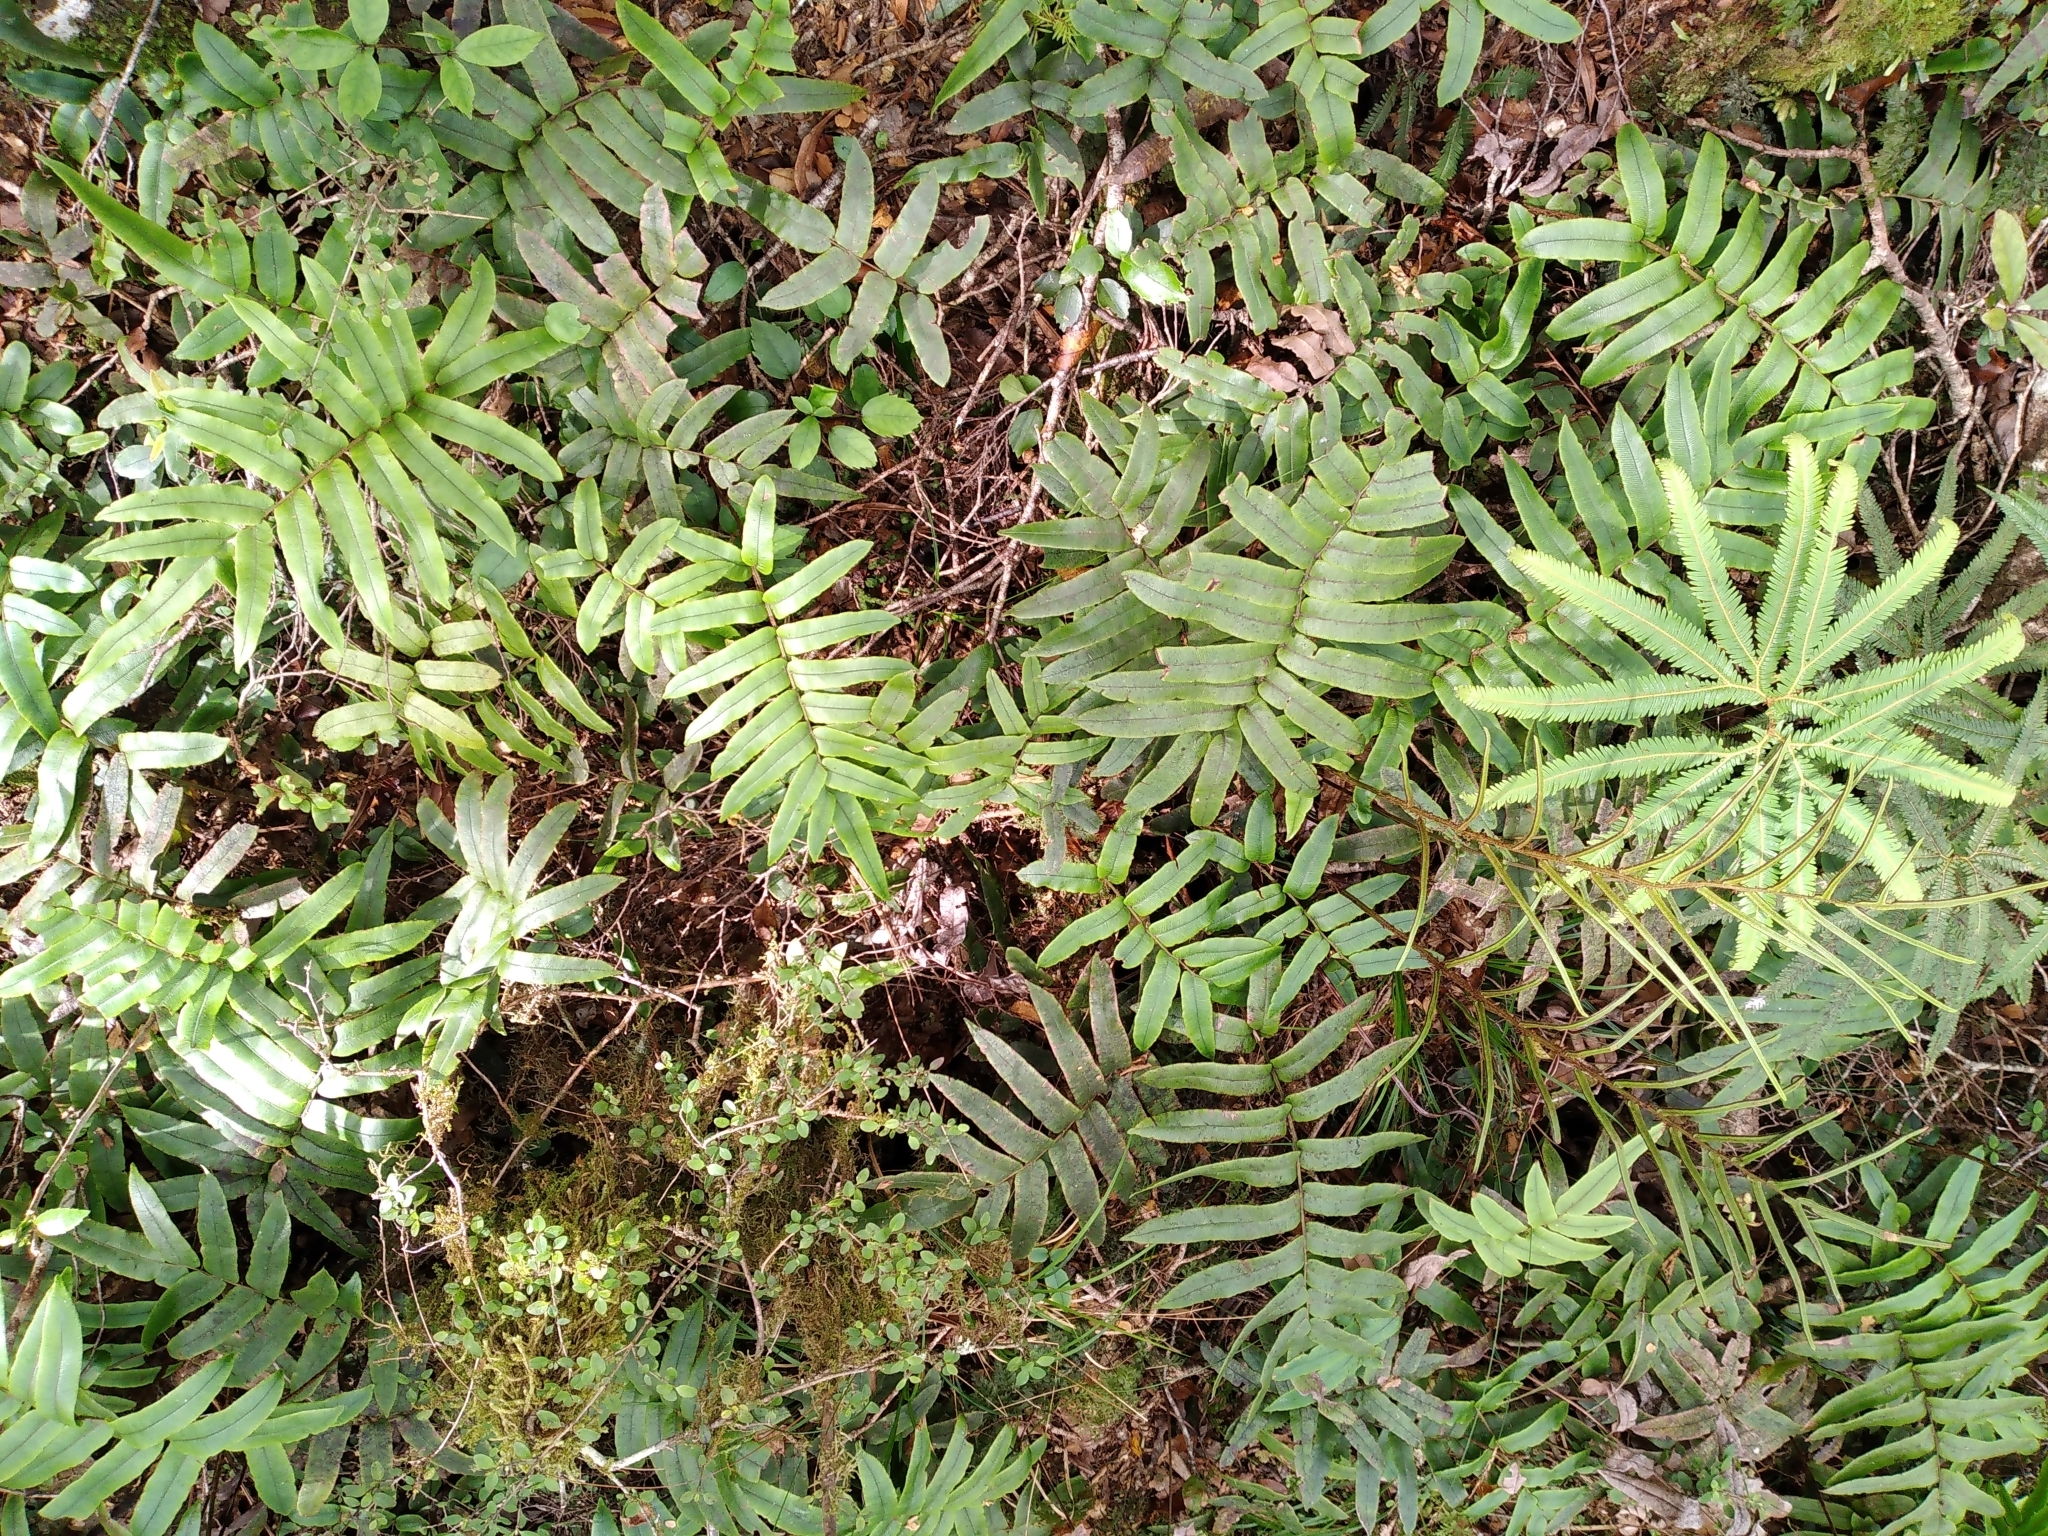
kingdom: Plantae
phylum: Tracheophyta
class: Polypodiopsida
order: Polypodiales
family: Blechnaceae
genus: Parablechnum
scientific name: Parablechnum procerum
